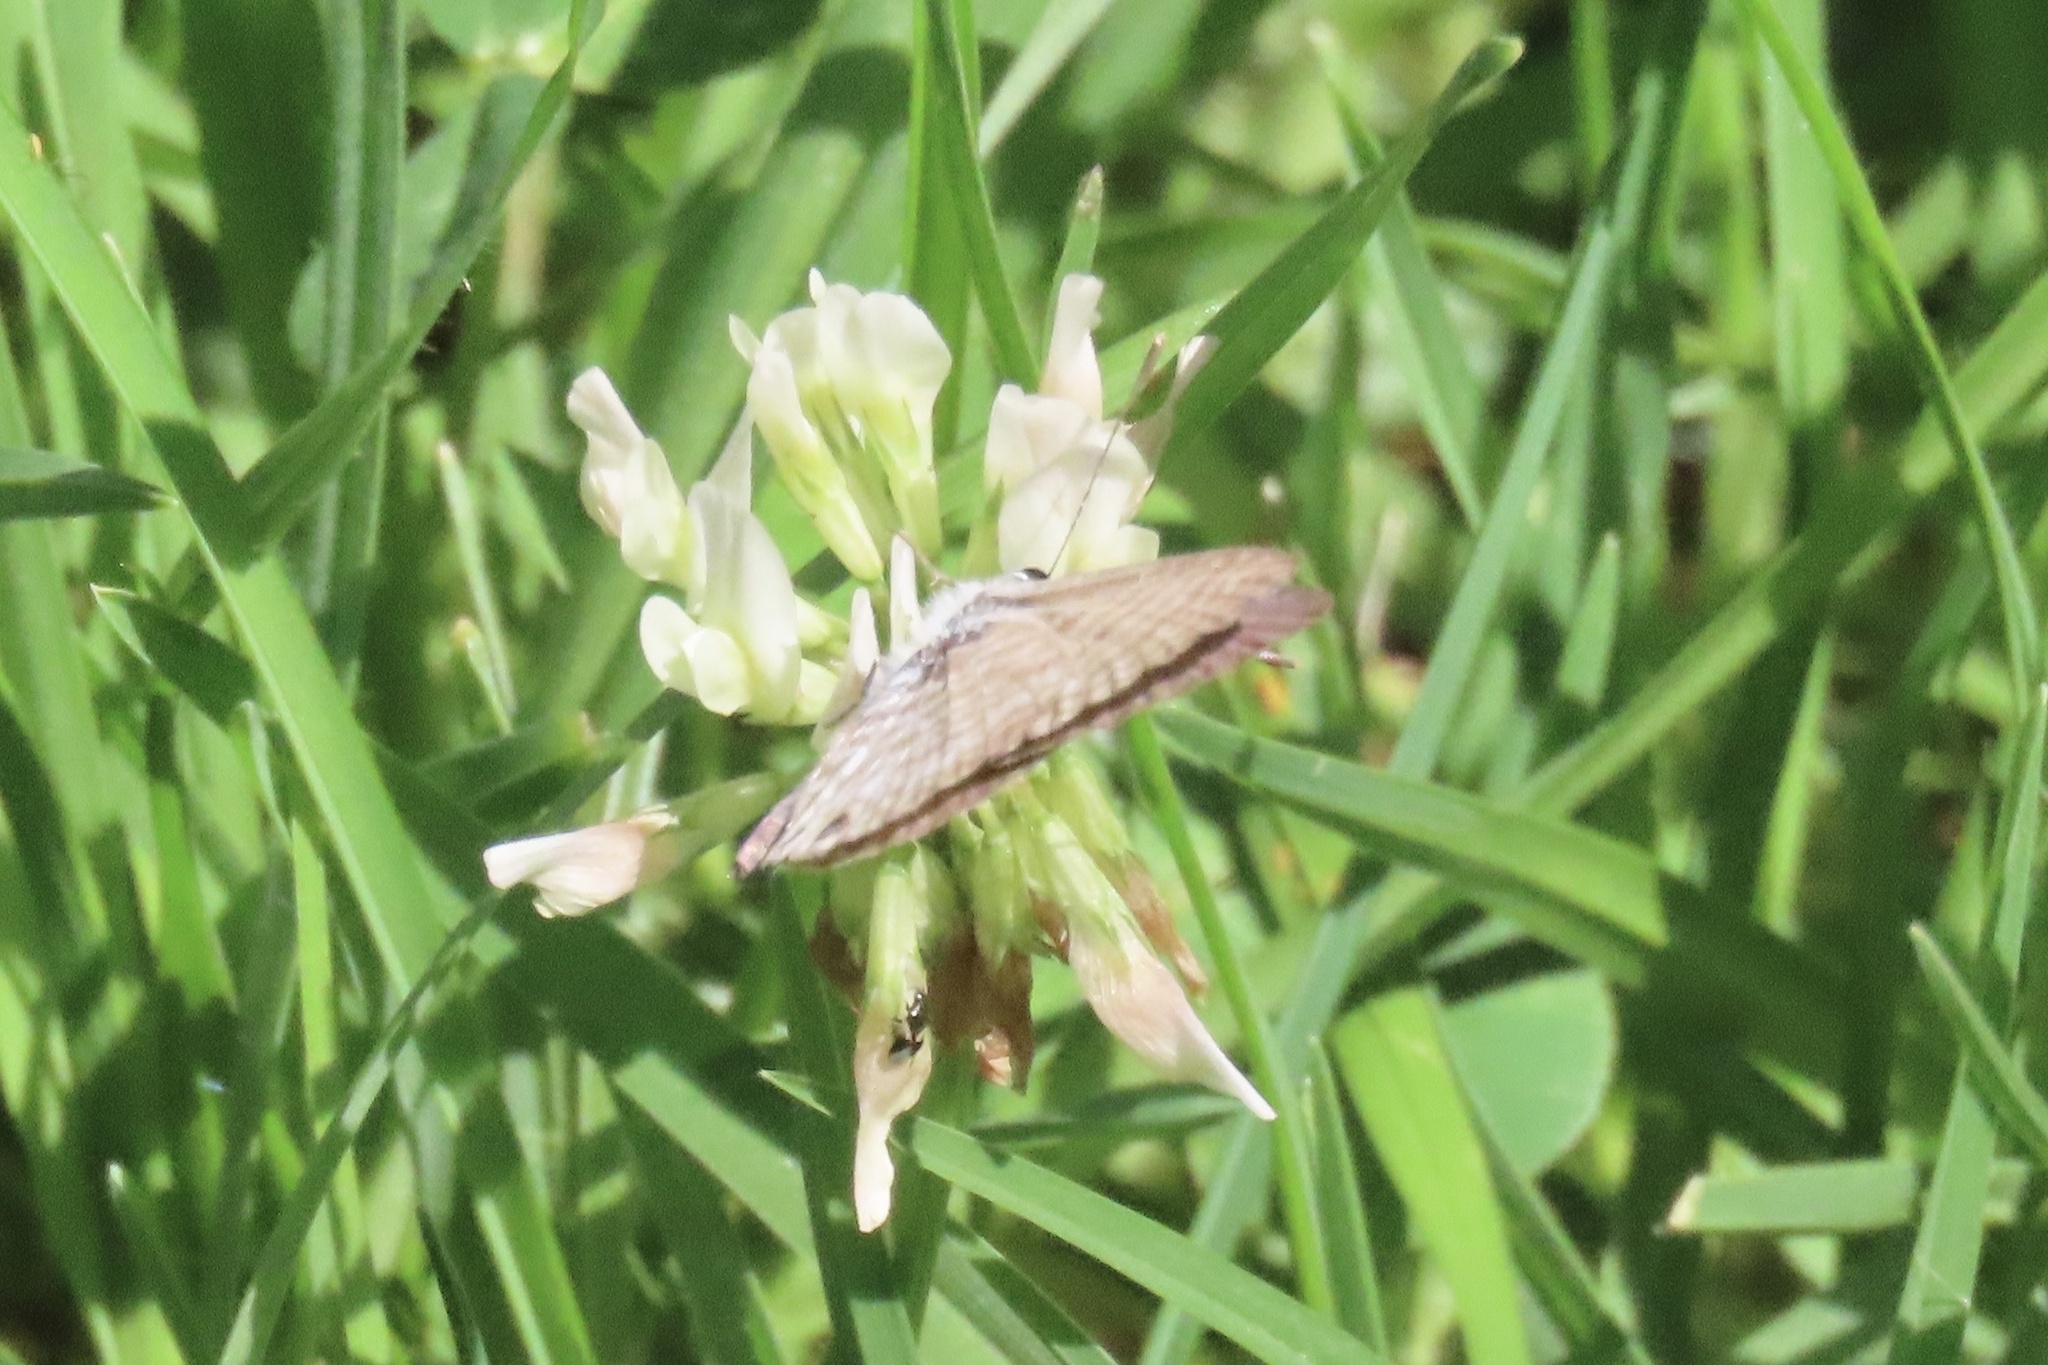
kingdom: Animalia
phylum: Arthropoda
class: Insecta
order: Lepidoptera
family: Lycaenidae
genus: Leptotes
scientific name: Leptotes marina
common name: Marine blue
